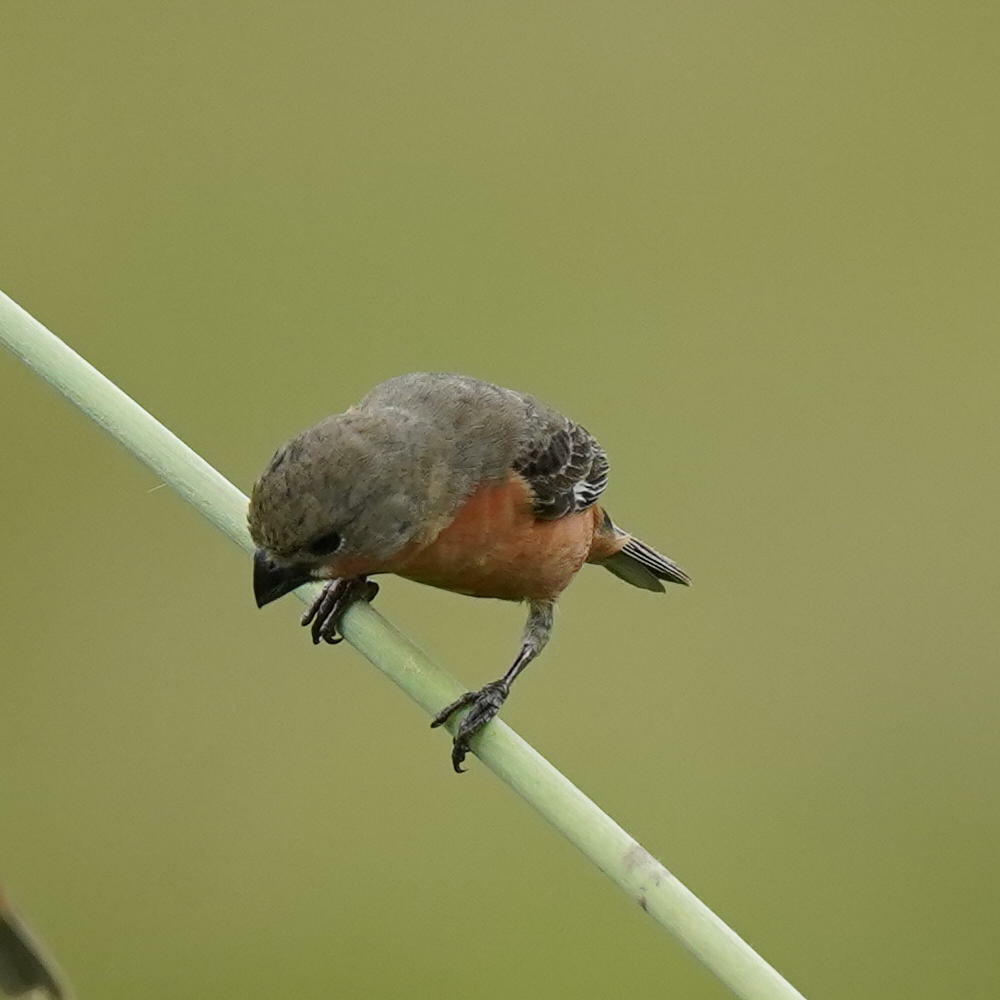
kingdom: Animalia
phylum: Chordata
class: Aves
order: Passeriformes
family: Thraupidae
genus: Sporophila
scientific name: Sporophila minuta
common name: Ruddy-breasted seedeater
